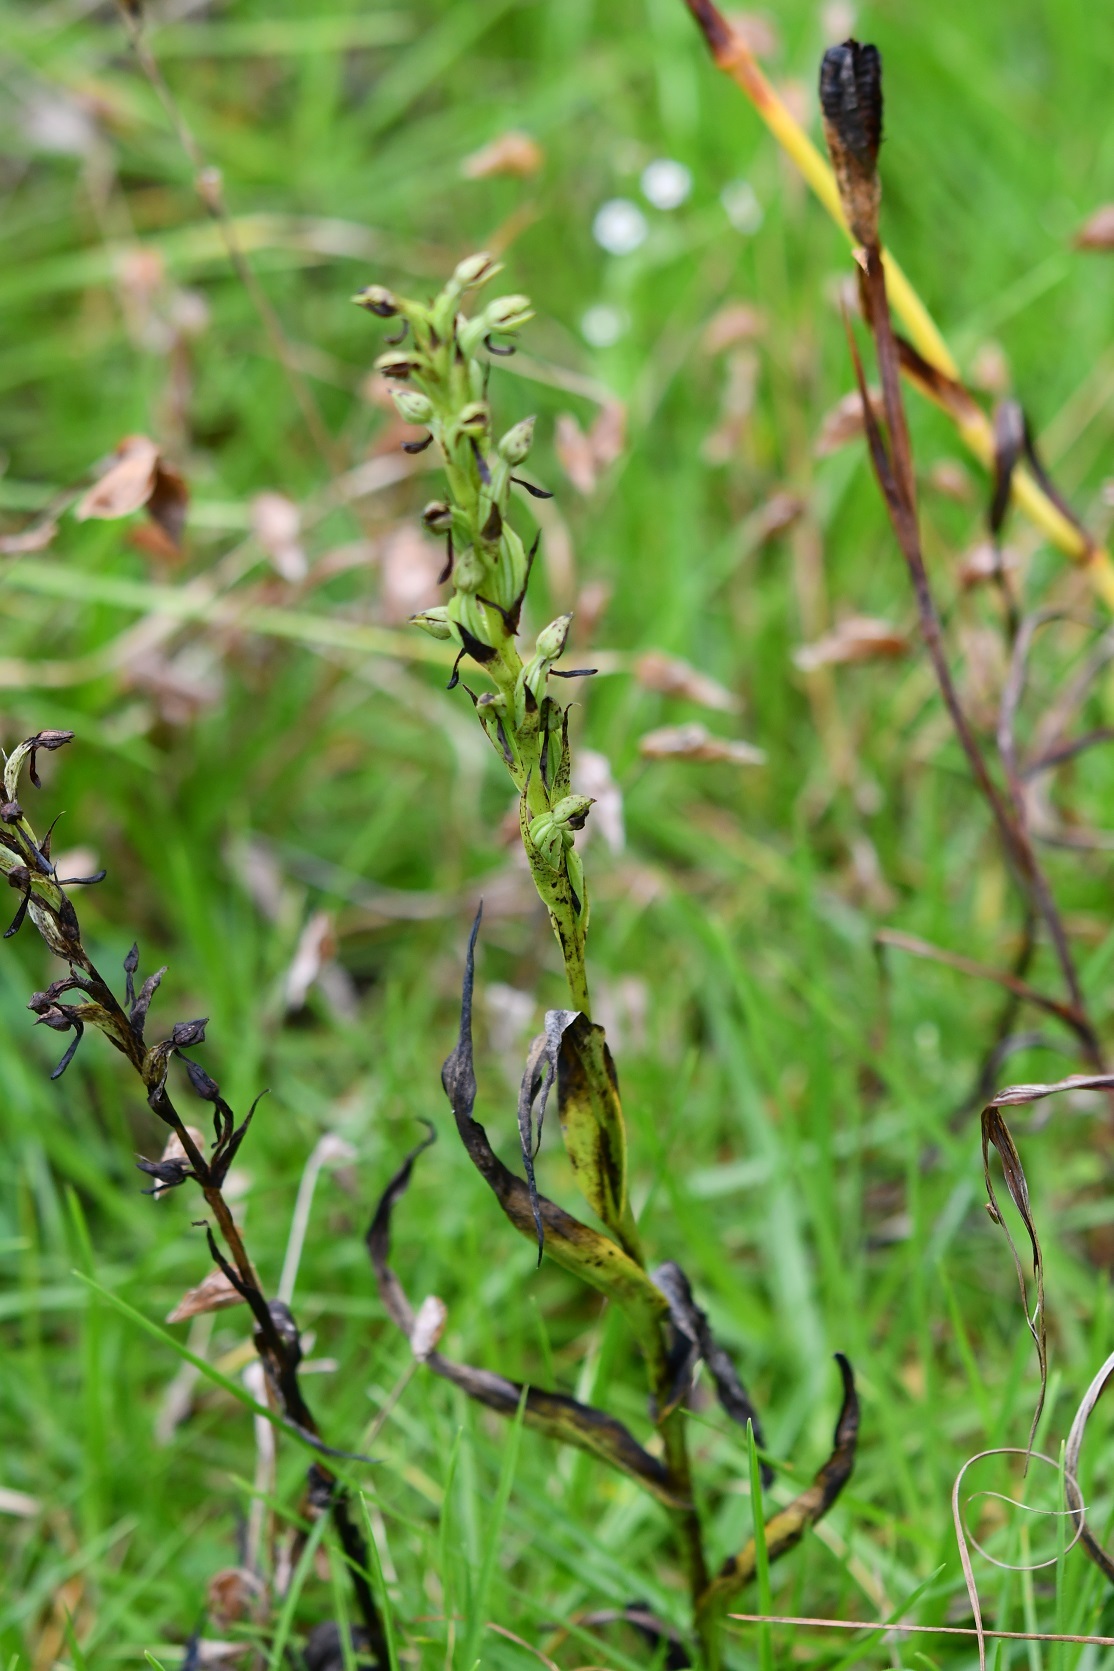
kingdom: Plantae
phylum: Tracheophyta
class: Liliopsida
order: Asparagales
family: Orchidaceae
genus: Habenaria
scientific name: Habenaria alata
